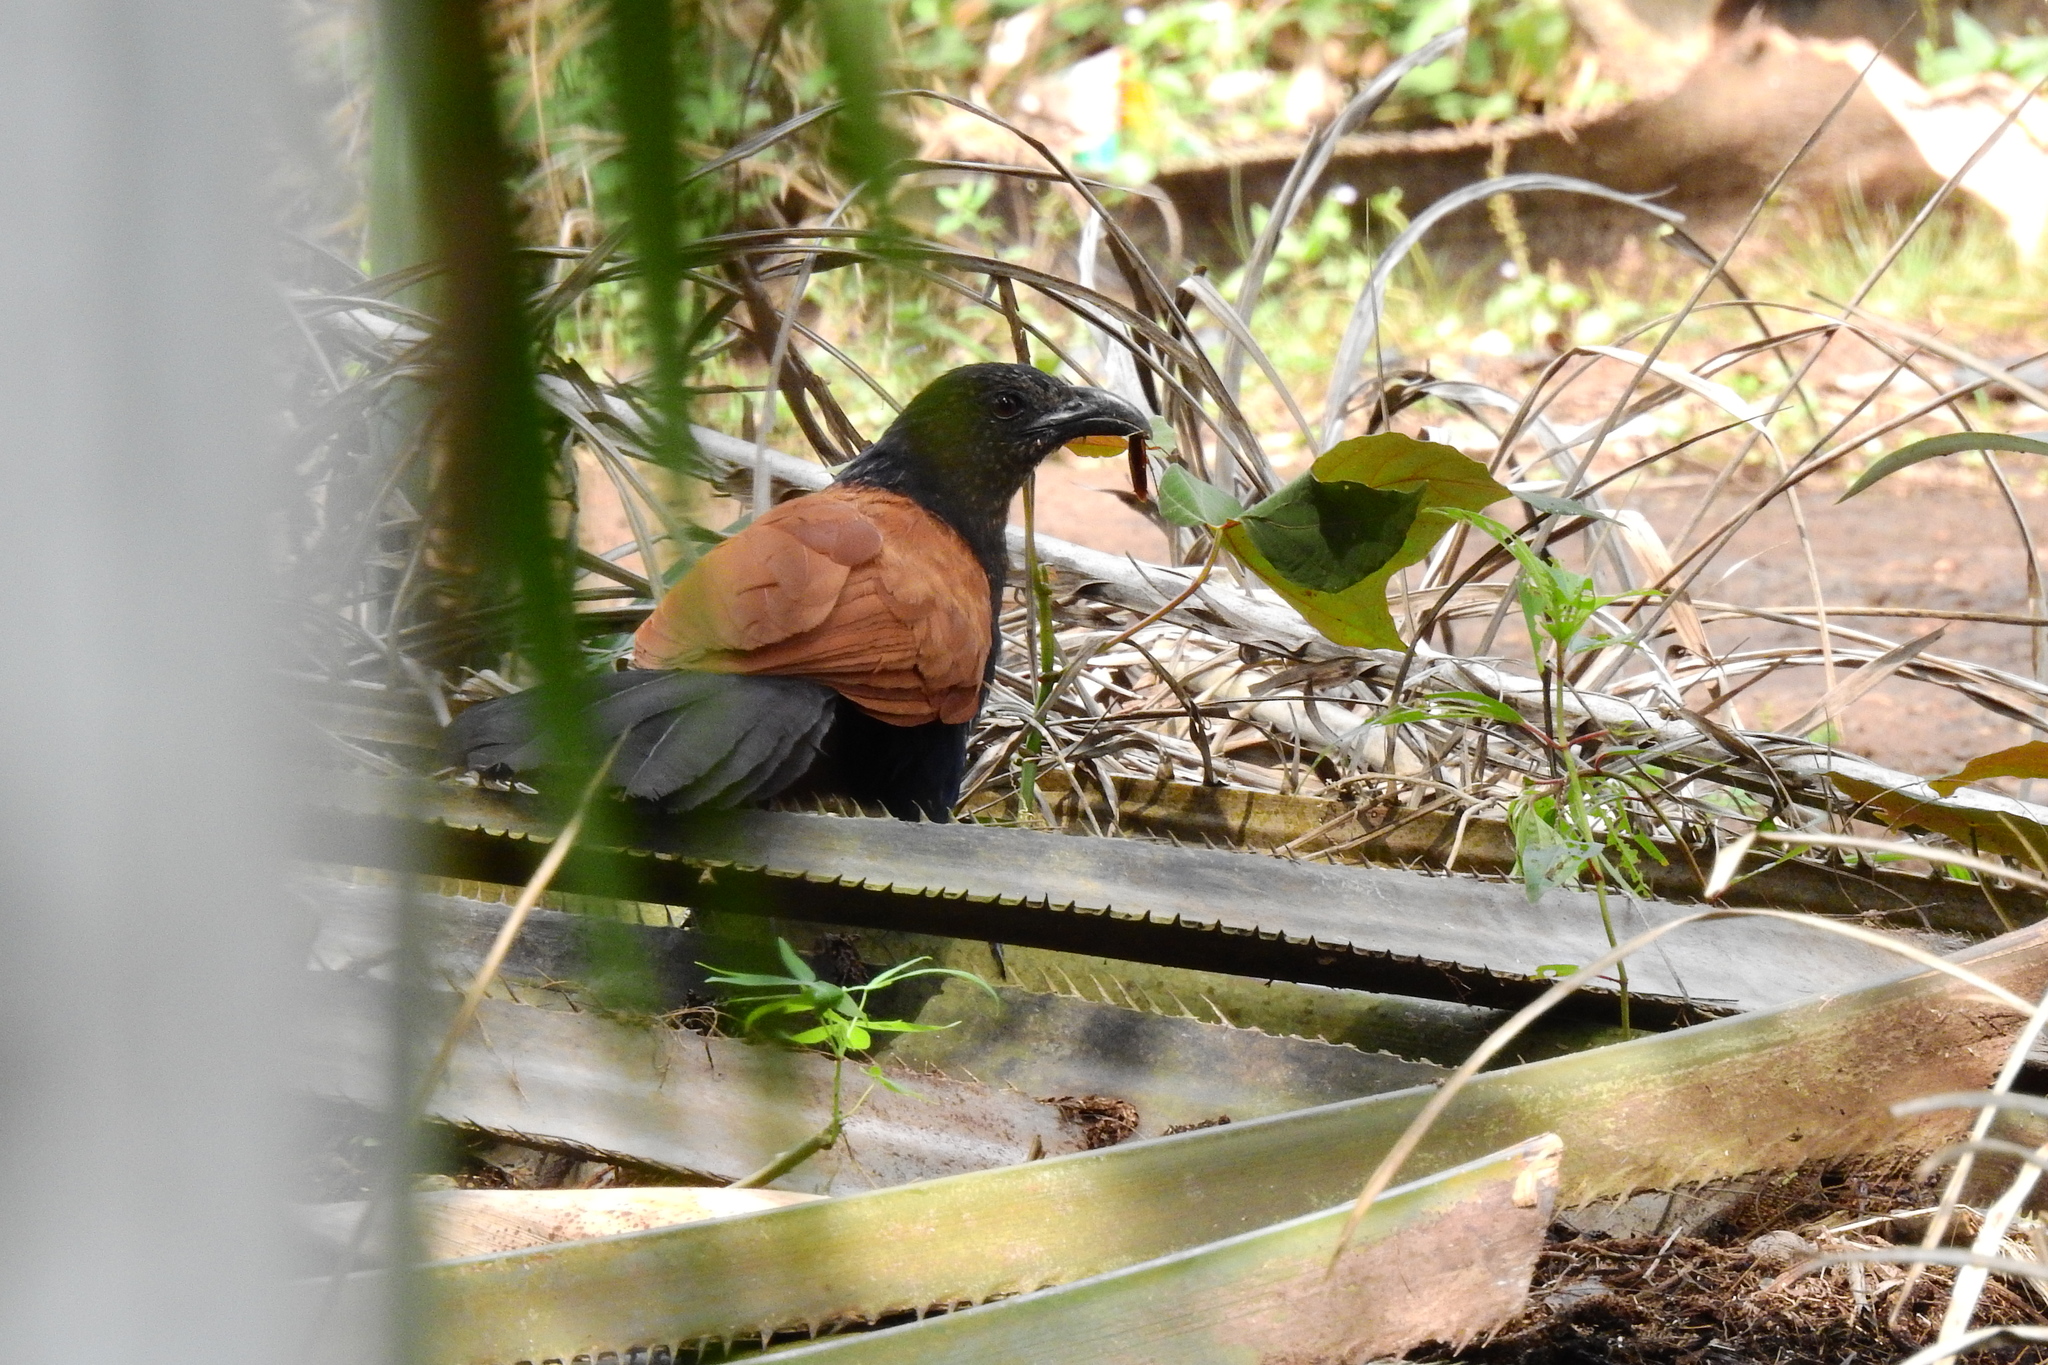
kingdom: Animalia
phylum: Chordata
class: Aves
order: Cuculiformes
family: Cuculidae
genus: Centropus
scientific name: Centropus sinensis
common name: Greater coucal
